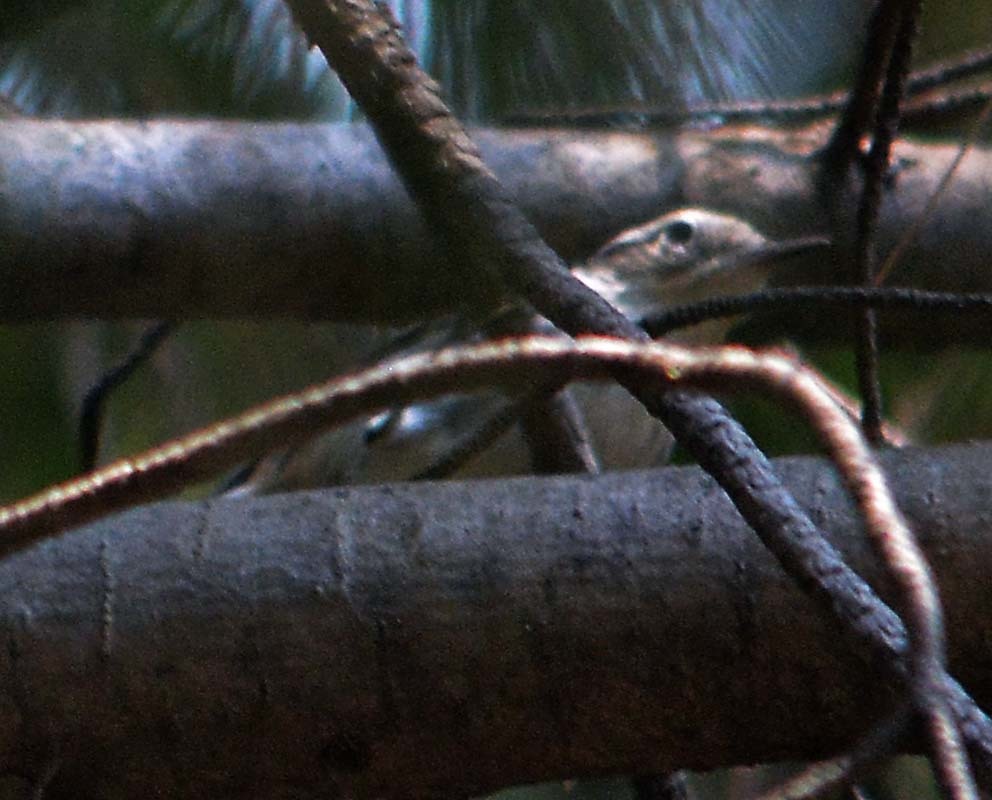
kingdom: Animalia
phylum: Chordata
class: Aves
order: Passeriformes
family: Parulidae
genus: Mniotilta
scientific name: Mniotilta varia
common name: Black-and-white warbler
